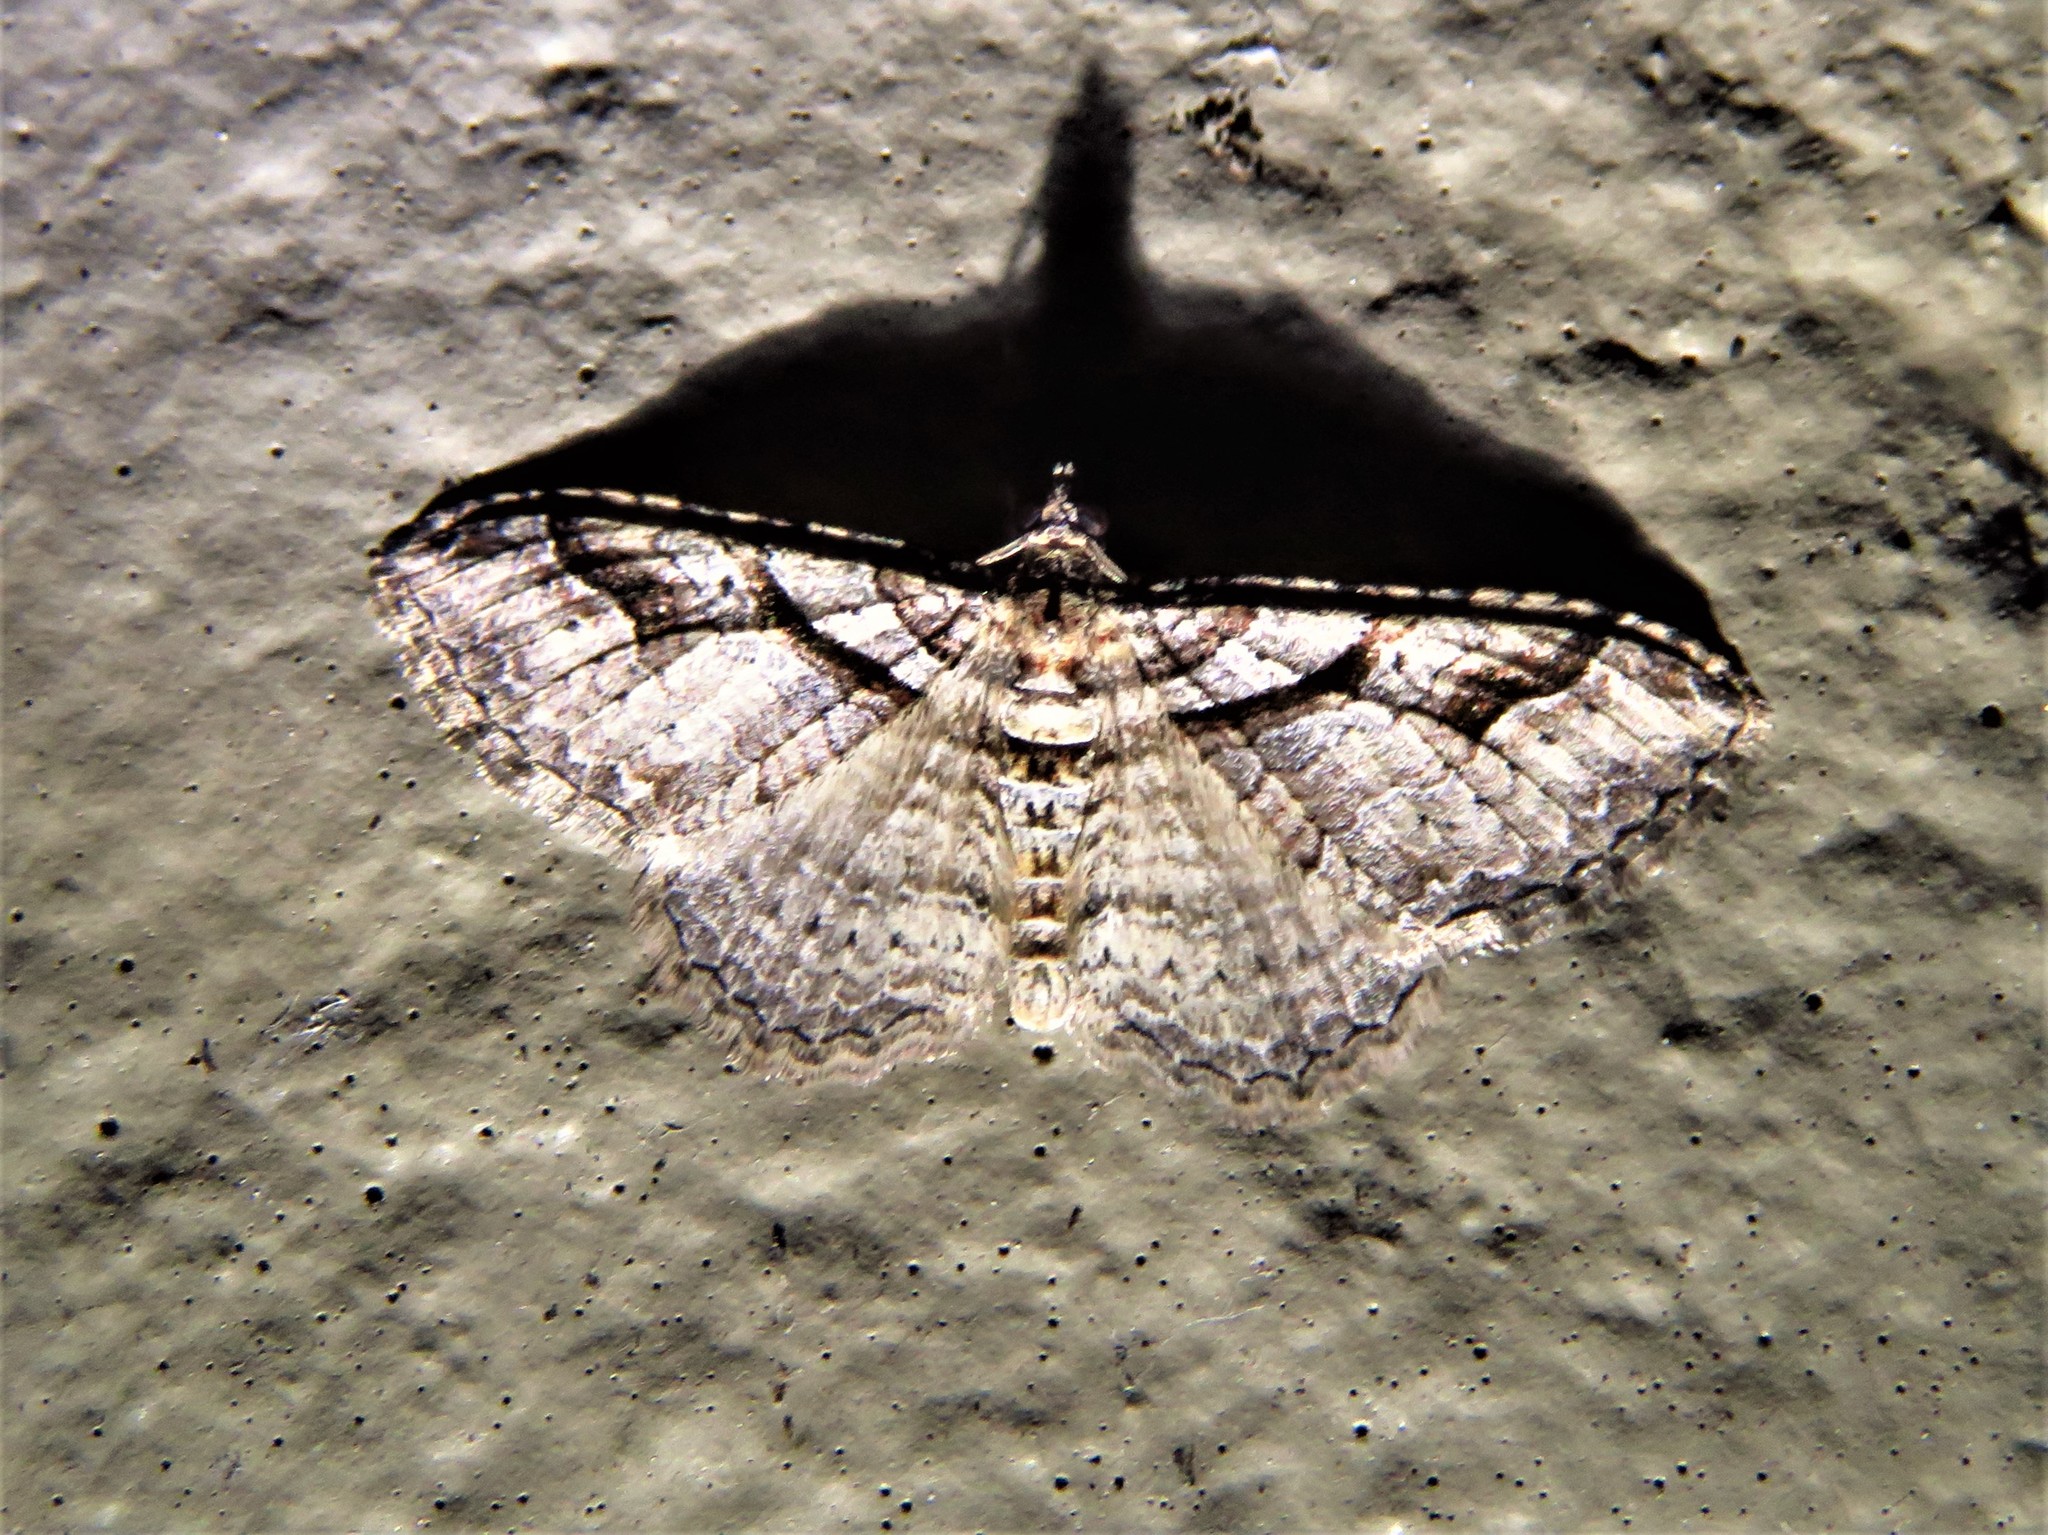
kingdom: Animalia
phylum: Arthropoda
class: Insecta
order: Lepidoptera
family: Geometridae
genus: Costaconvexa
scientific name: Costaconvexa centrostrigaria
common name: Bent-line carpet
